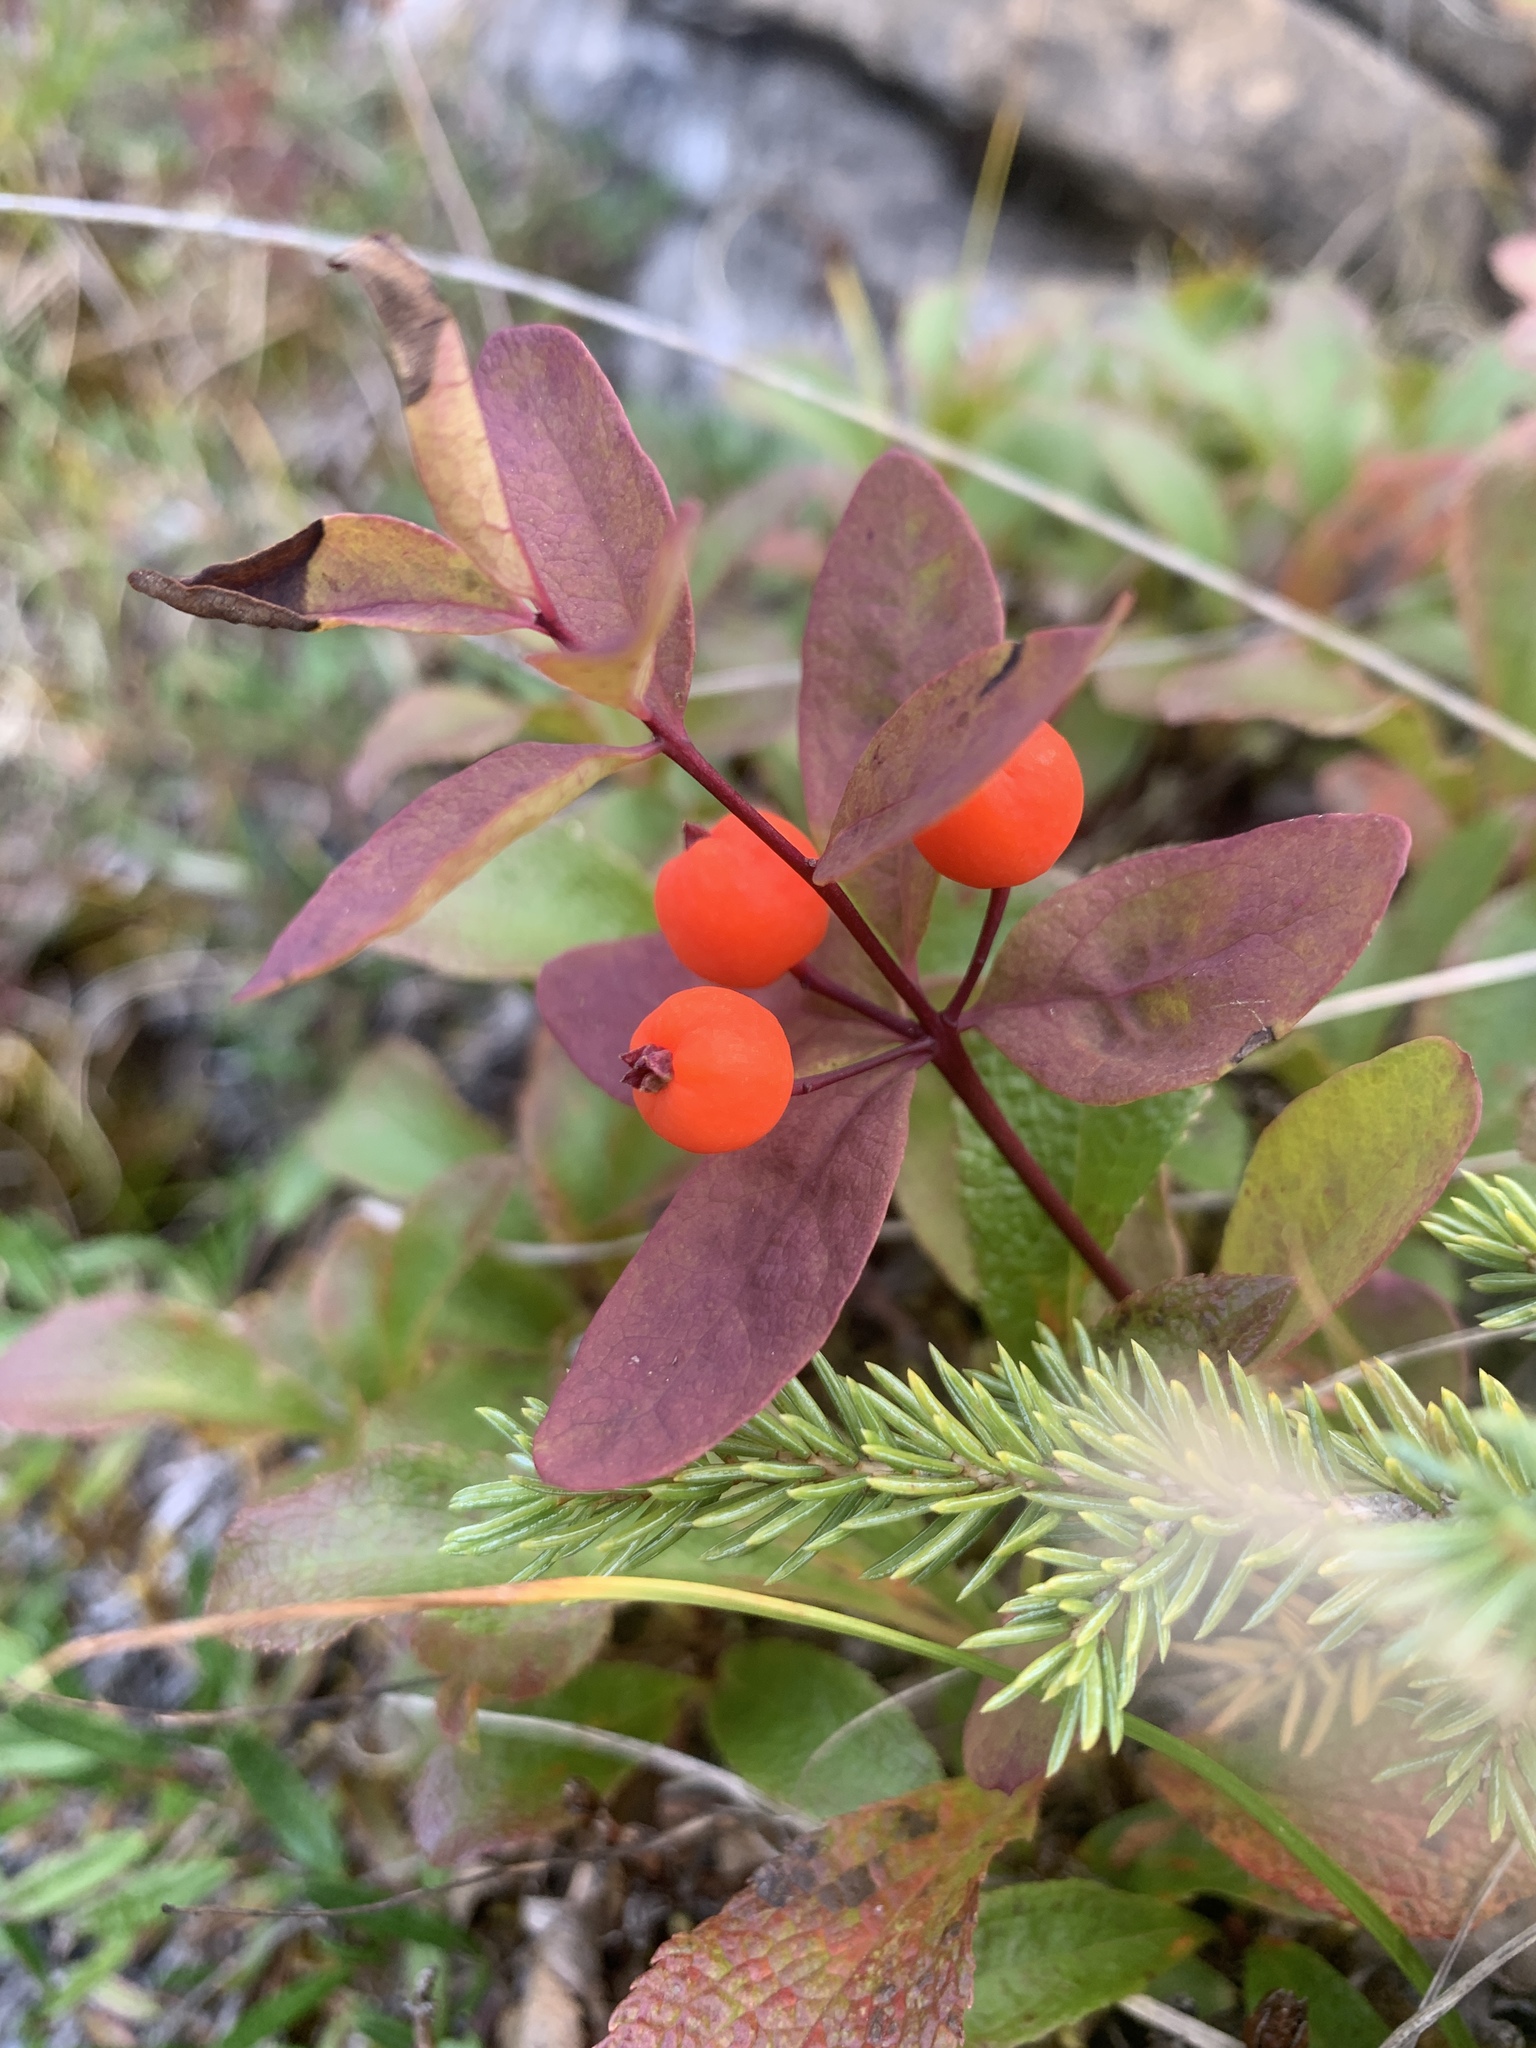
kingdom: Plantae
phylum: Tracheophyta
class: Magnoliopsida
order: Santalales
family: Comandraceae
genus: Geocaulon
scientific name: Geocaulon lividum
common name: Earthberry
